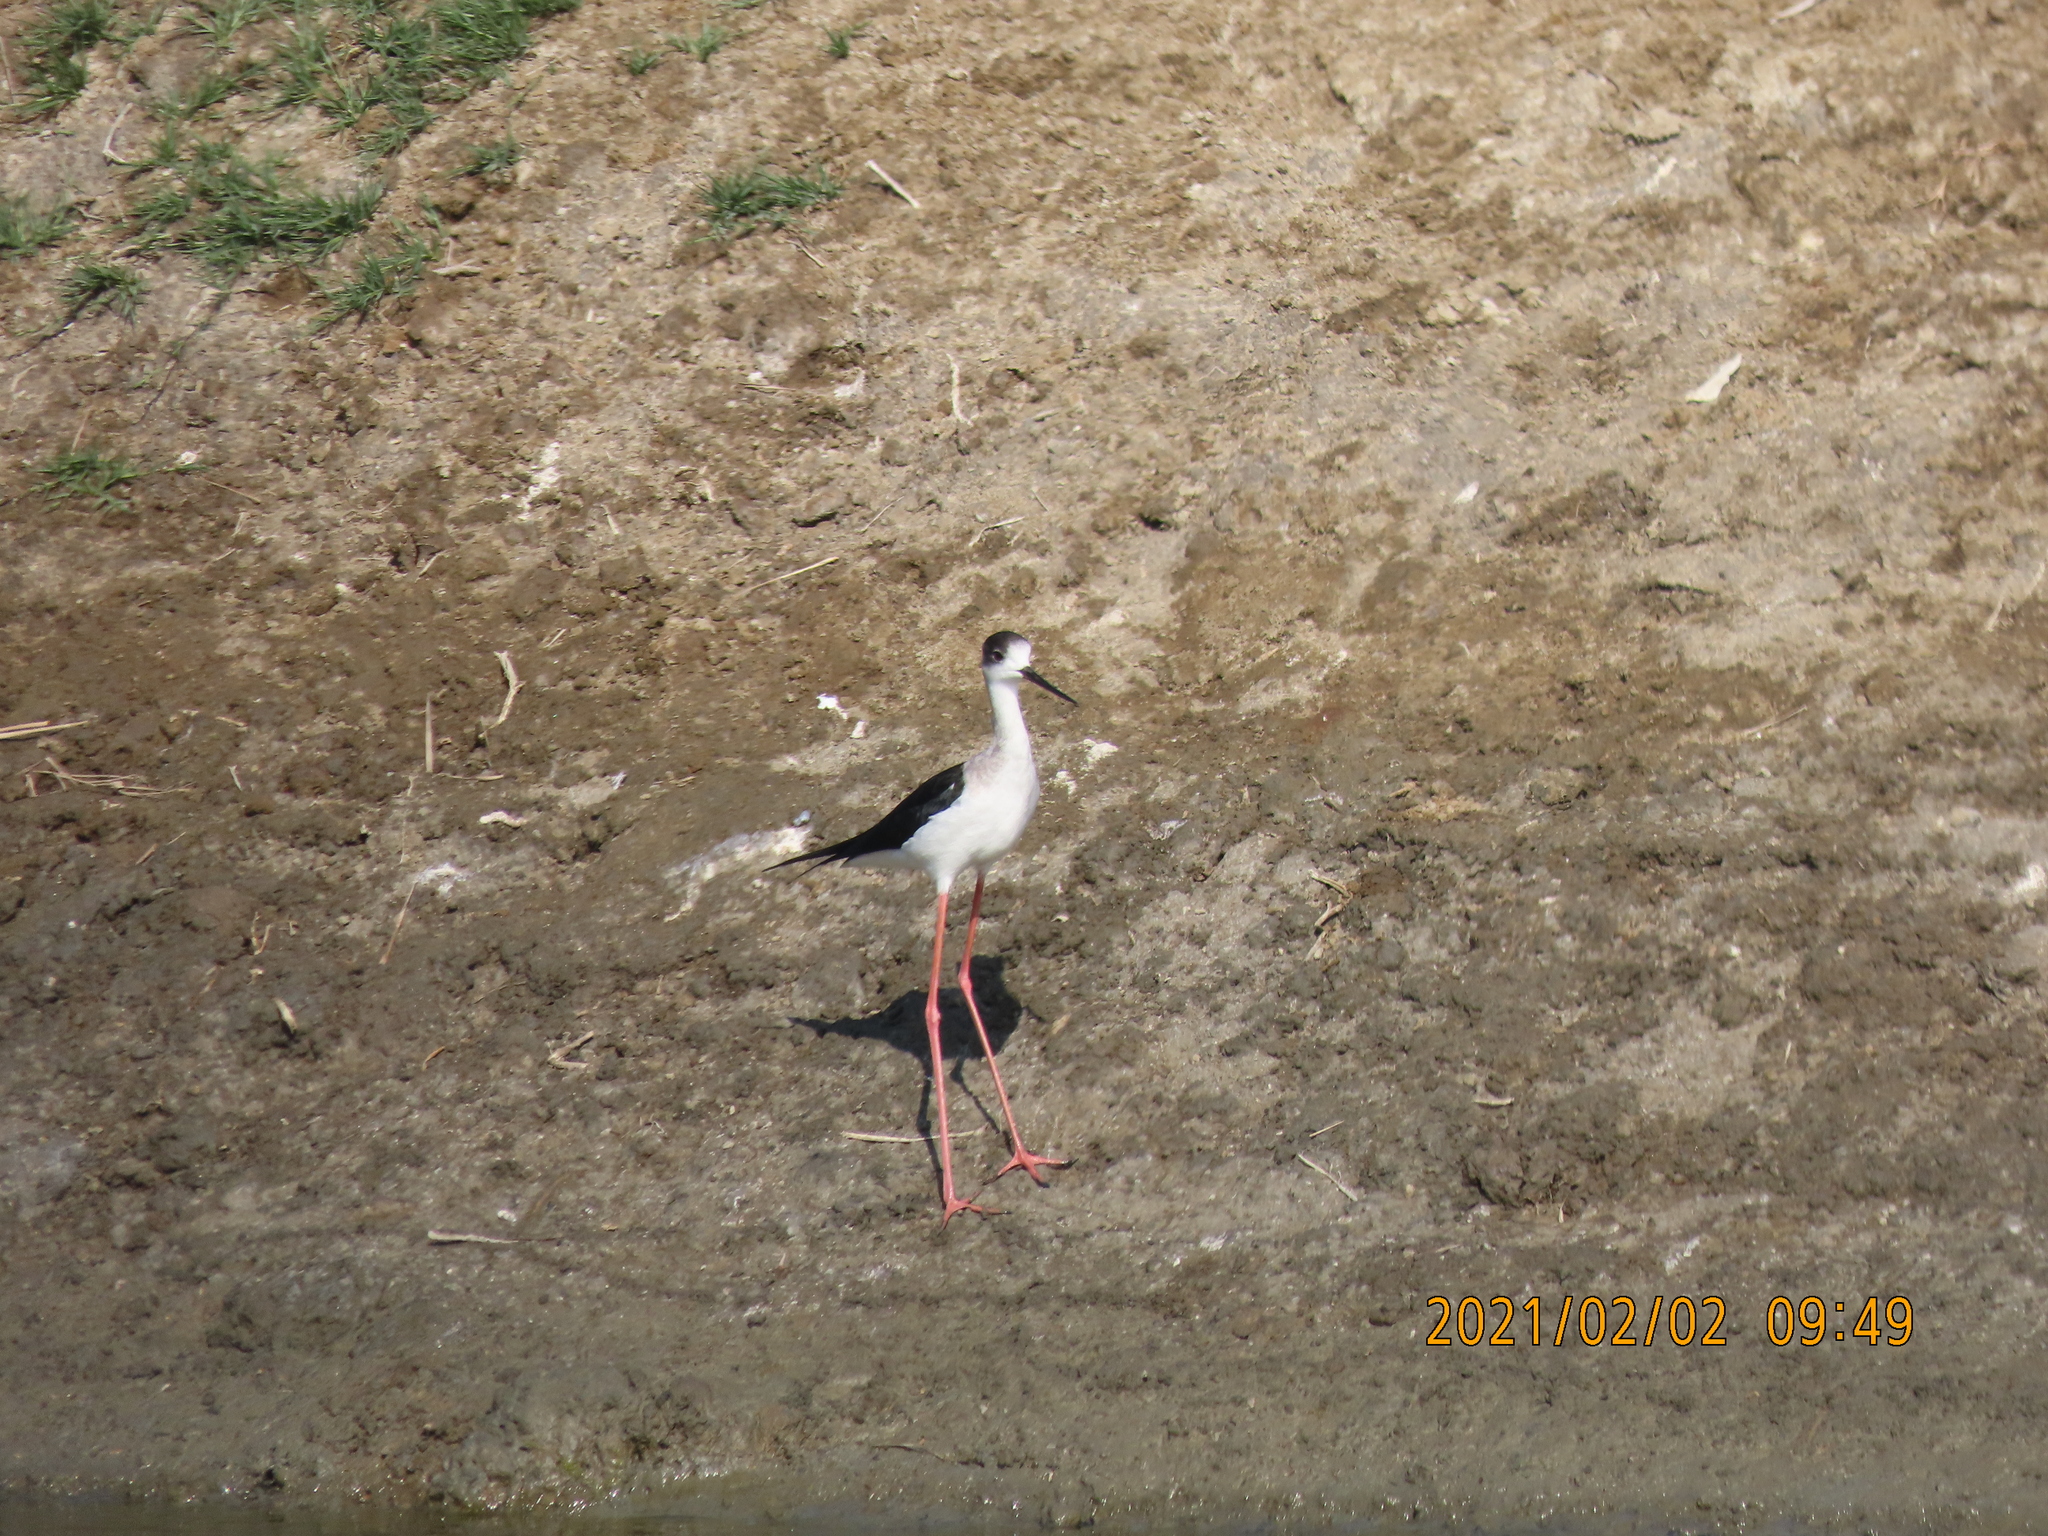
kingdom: Animalia
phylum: Chordata
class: Aves
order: Charadriiformes
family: Recurvirostridae
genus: Himantopus
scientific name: Himantopus himantopus
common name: Black-winged stilt
